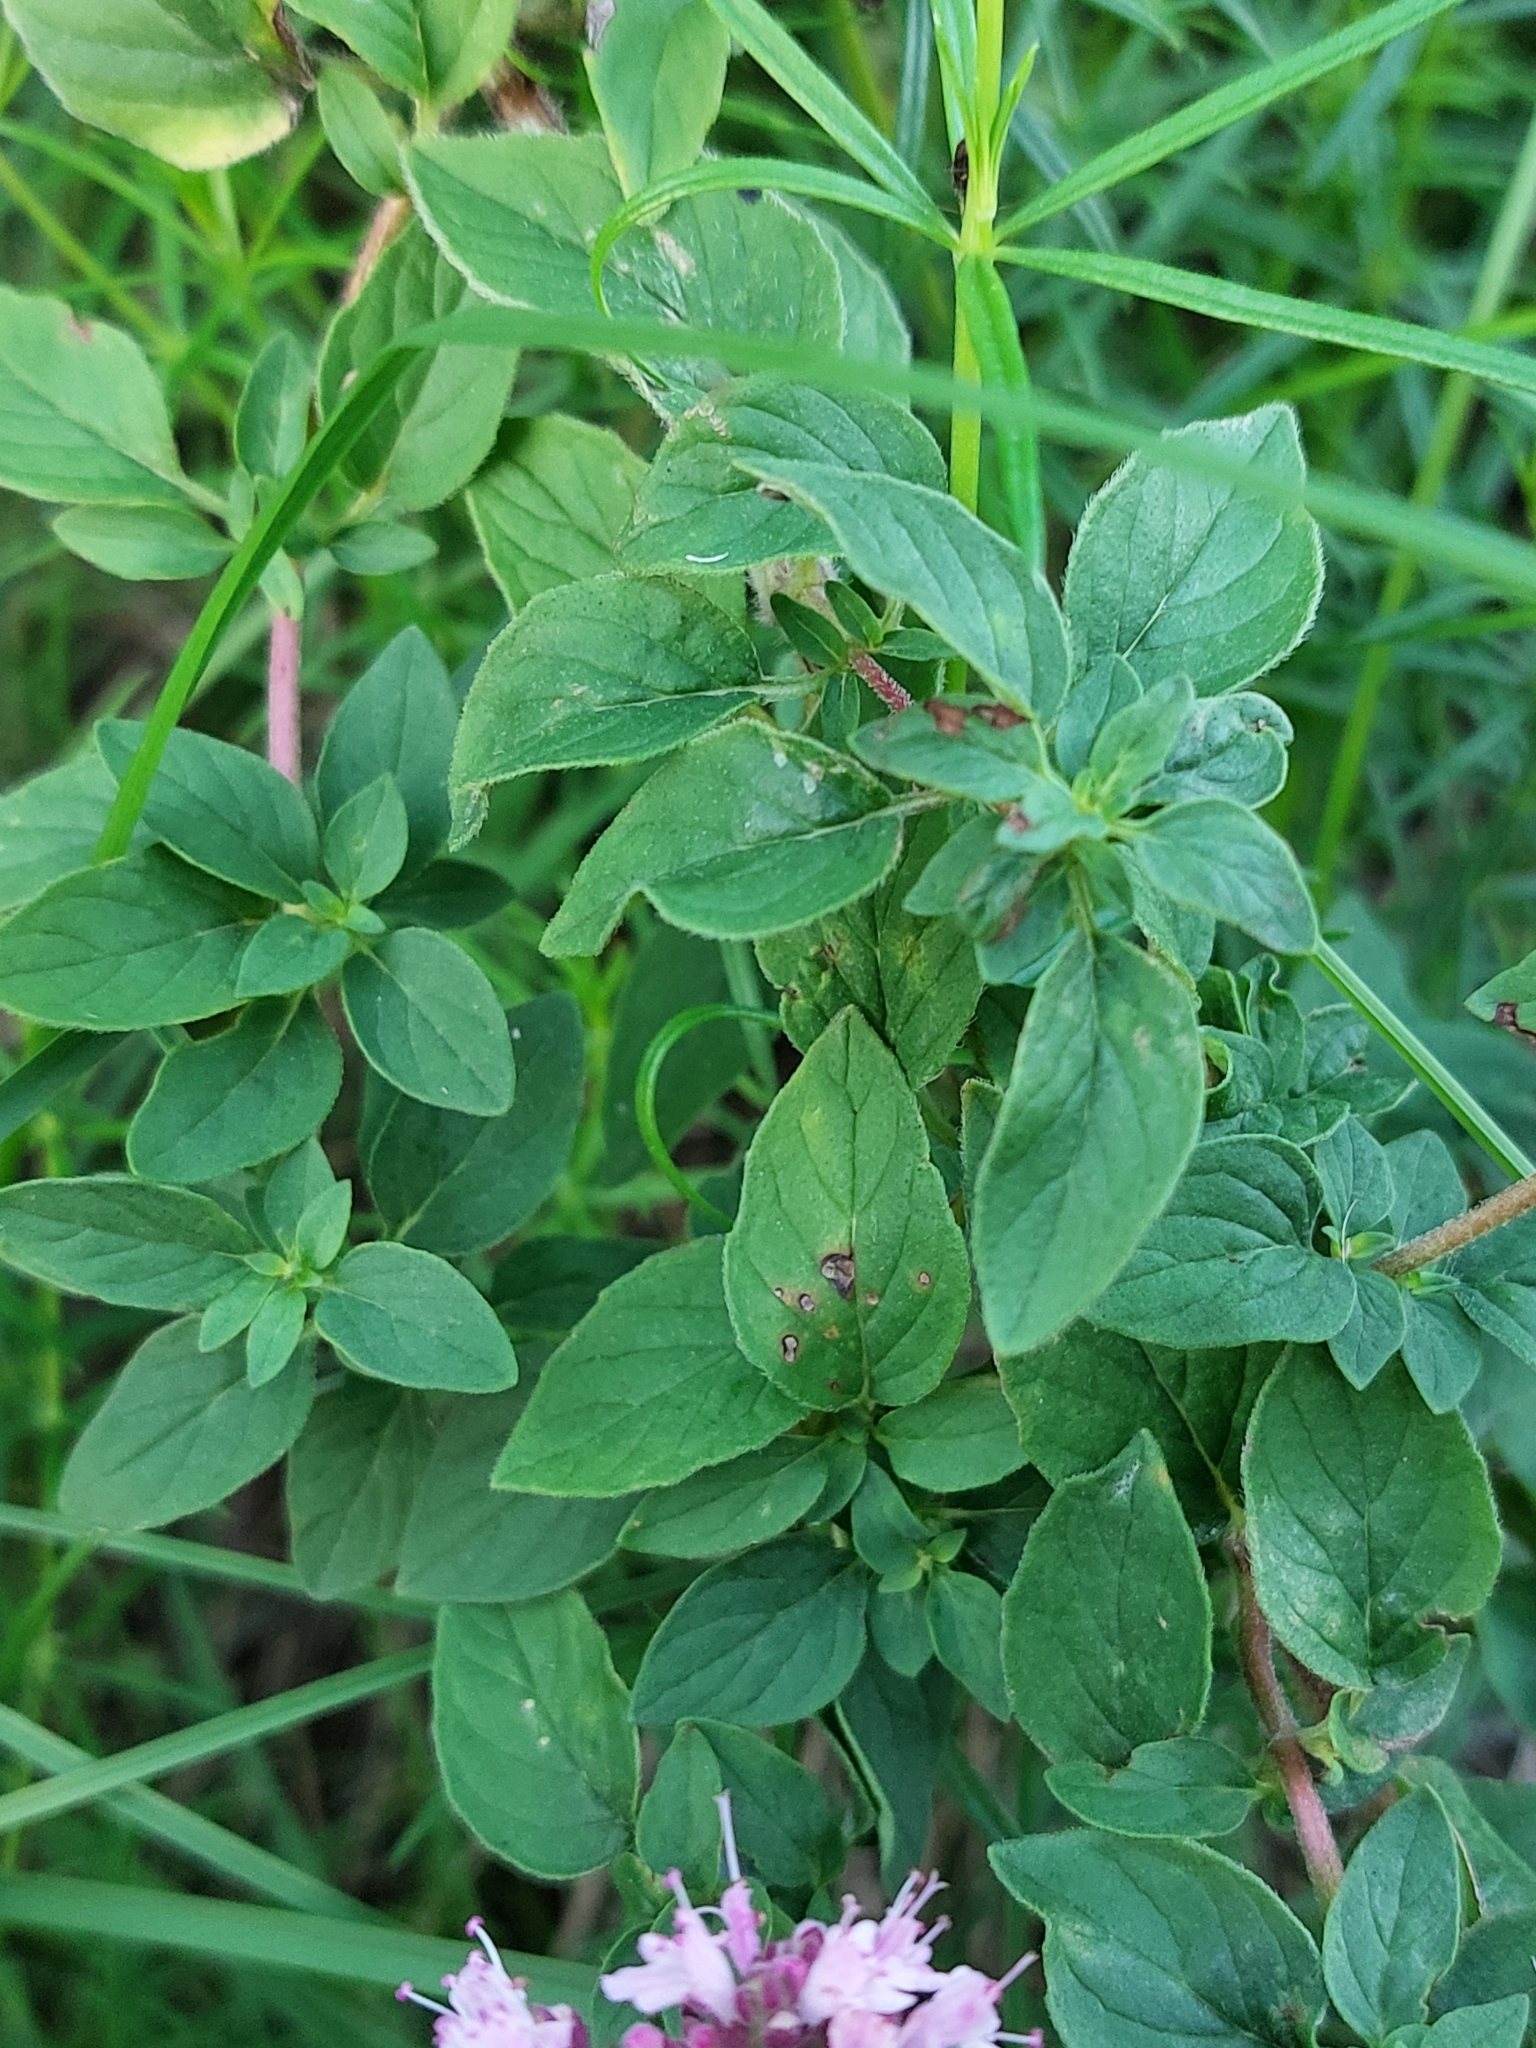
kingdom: Plantae
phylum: Tracheophyta
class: Magnoliopsida
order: Lamiales
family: Lamiaceae
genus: Origanum
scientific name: Origanum vulgare
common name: Wild marjoram
